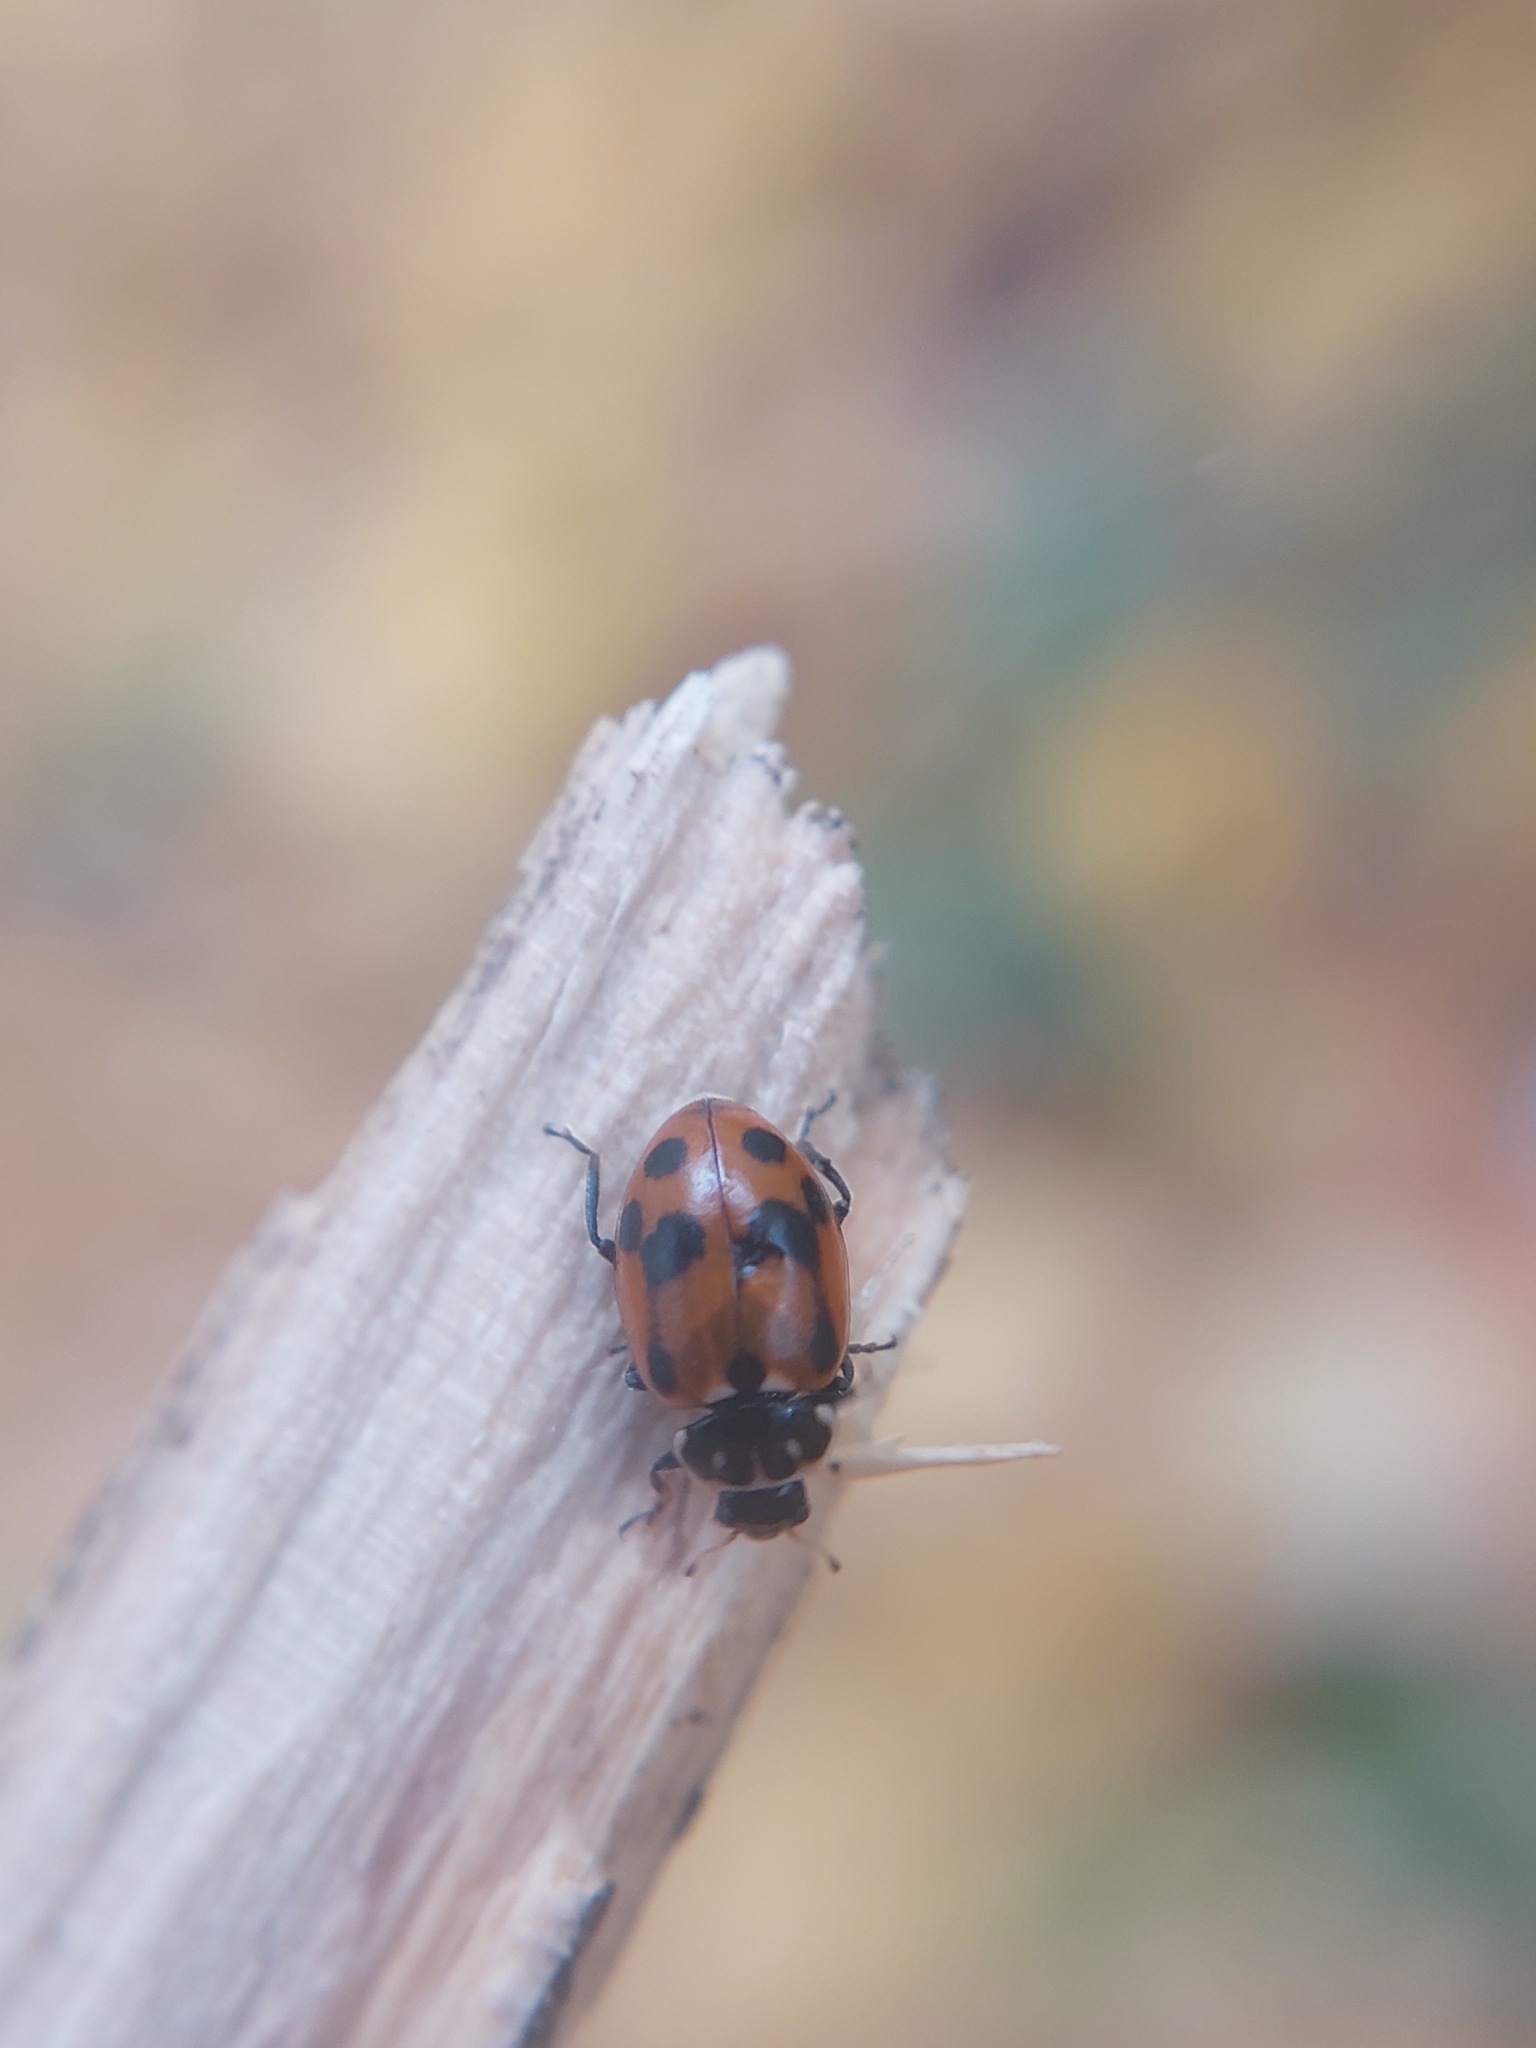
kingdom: Animalia
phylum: Arthropoda
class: Insecta
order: Coleoptera
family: Coccinellidae
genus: Hippodamia
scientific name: Hippodamia variegata
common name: Ladybird beetle
